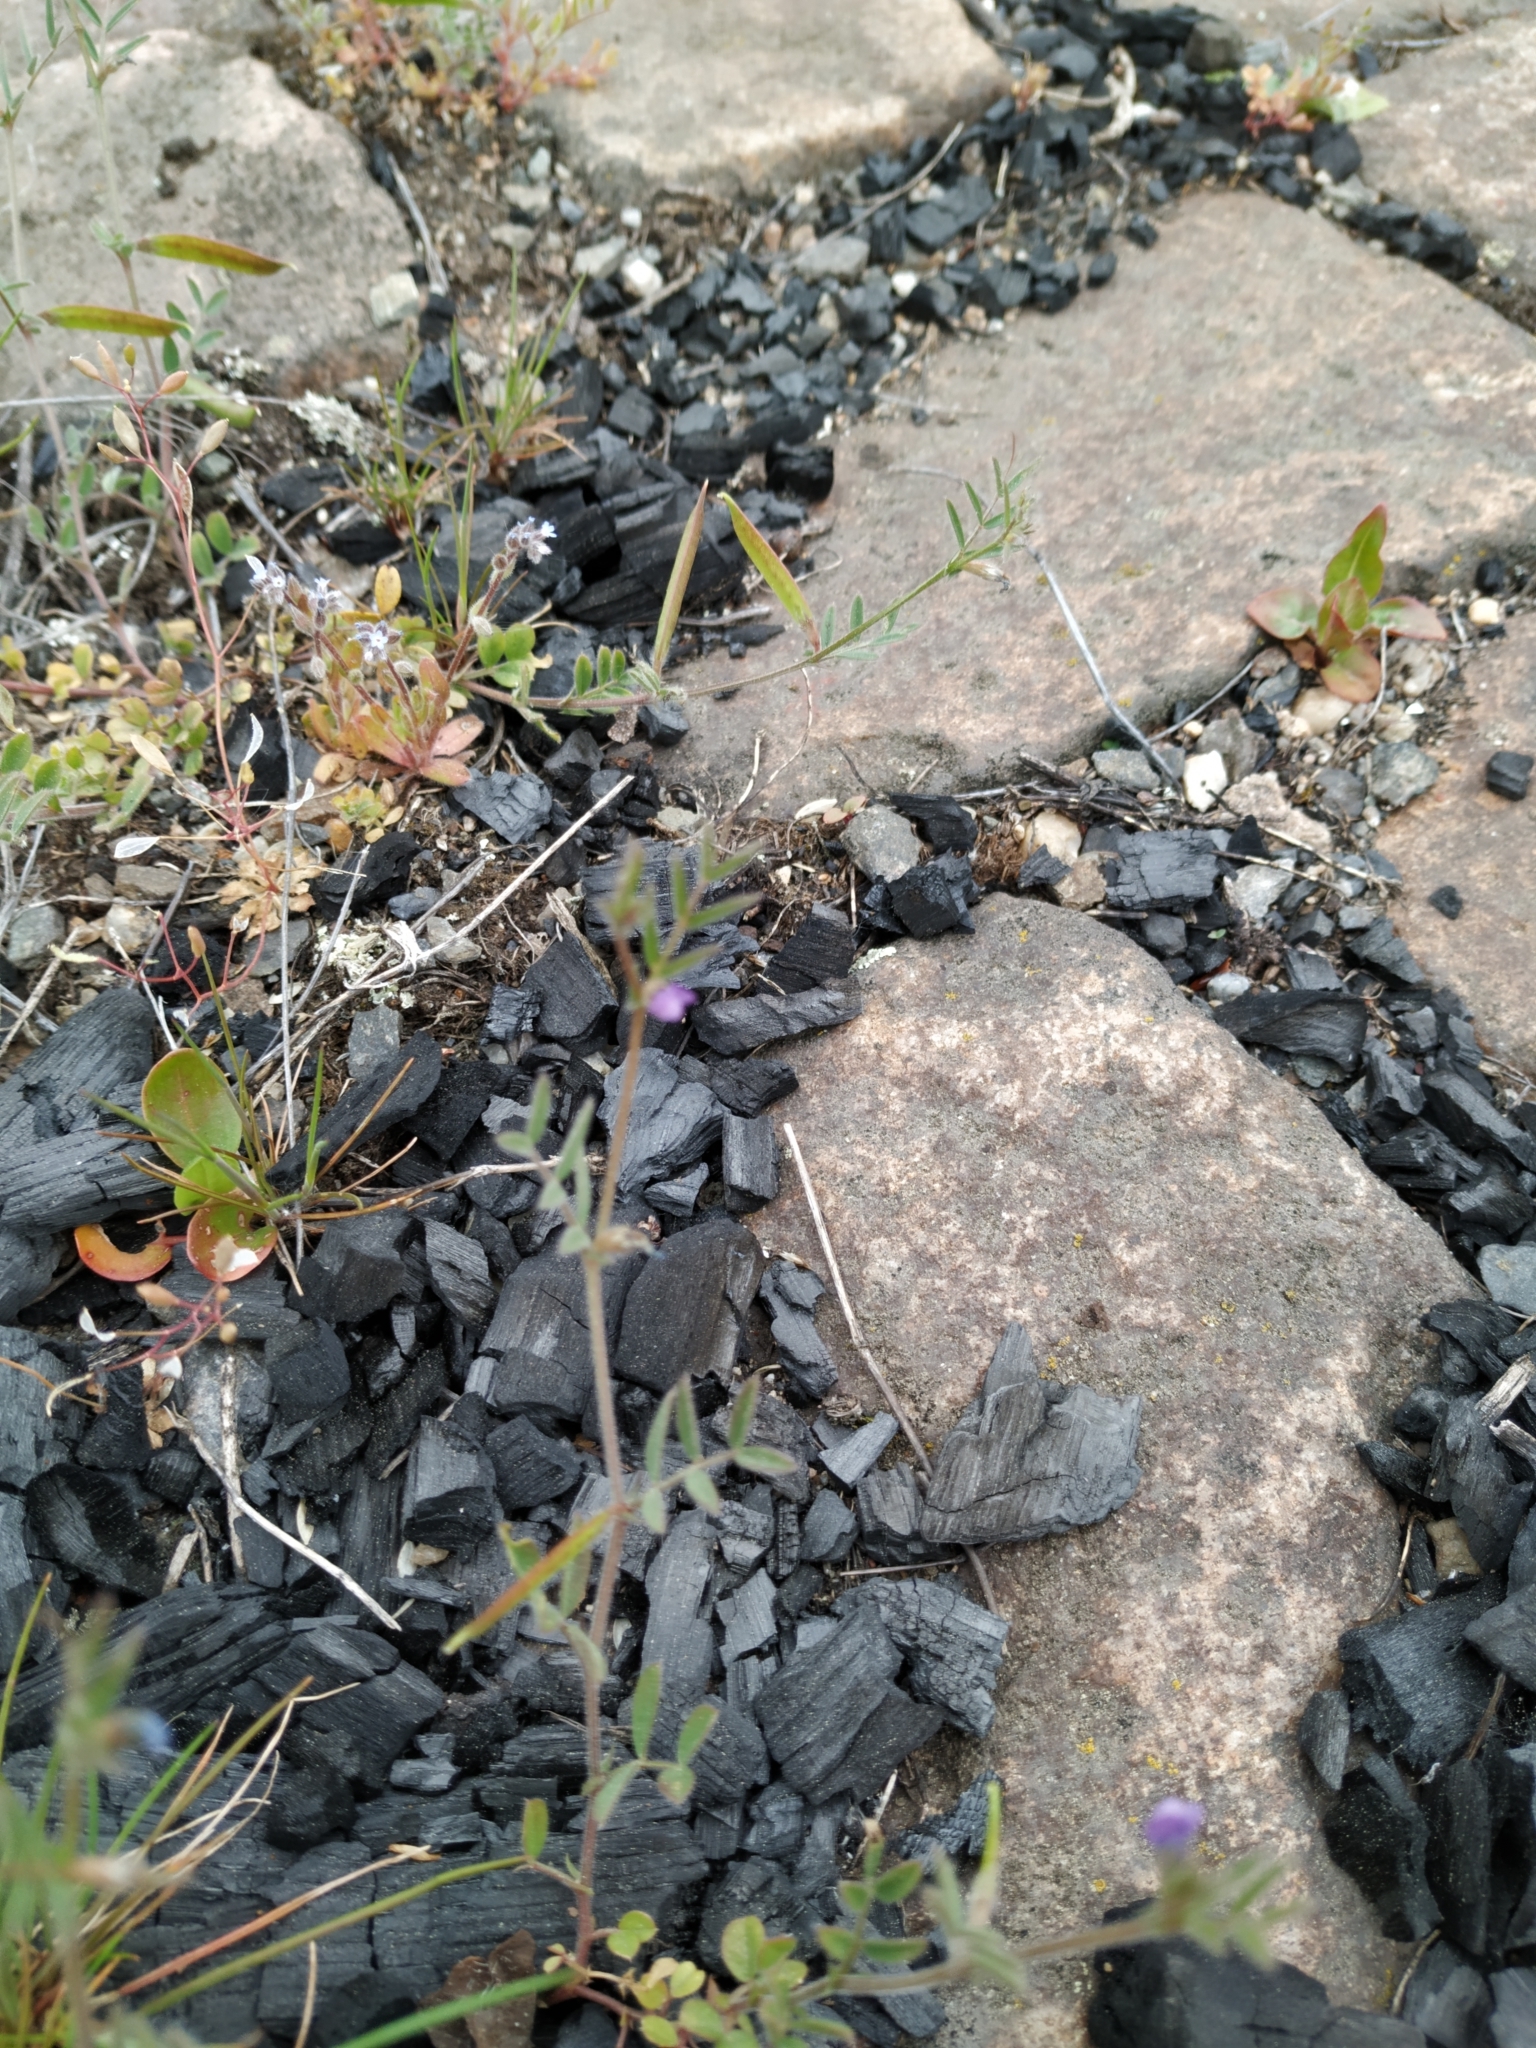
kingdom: Plantae
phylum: Tracheophyta
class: Magnoliopsida
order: Fabales
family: Fabaceae
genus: Vicia
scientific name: Vicia lathyroides
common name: Spring vetch
